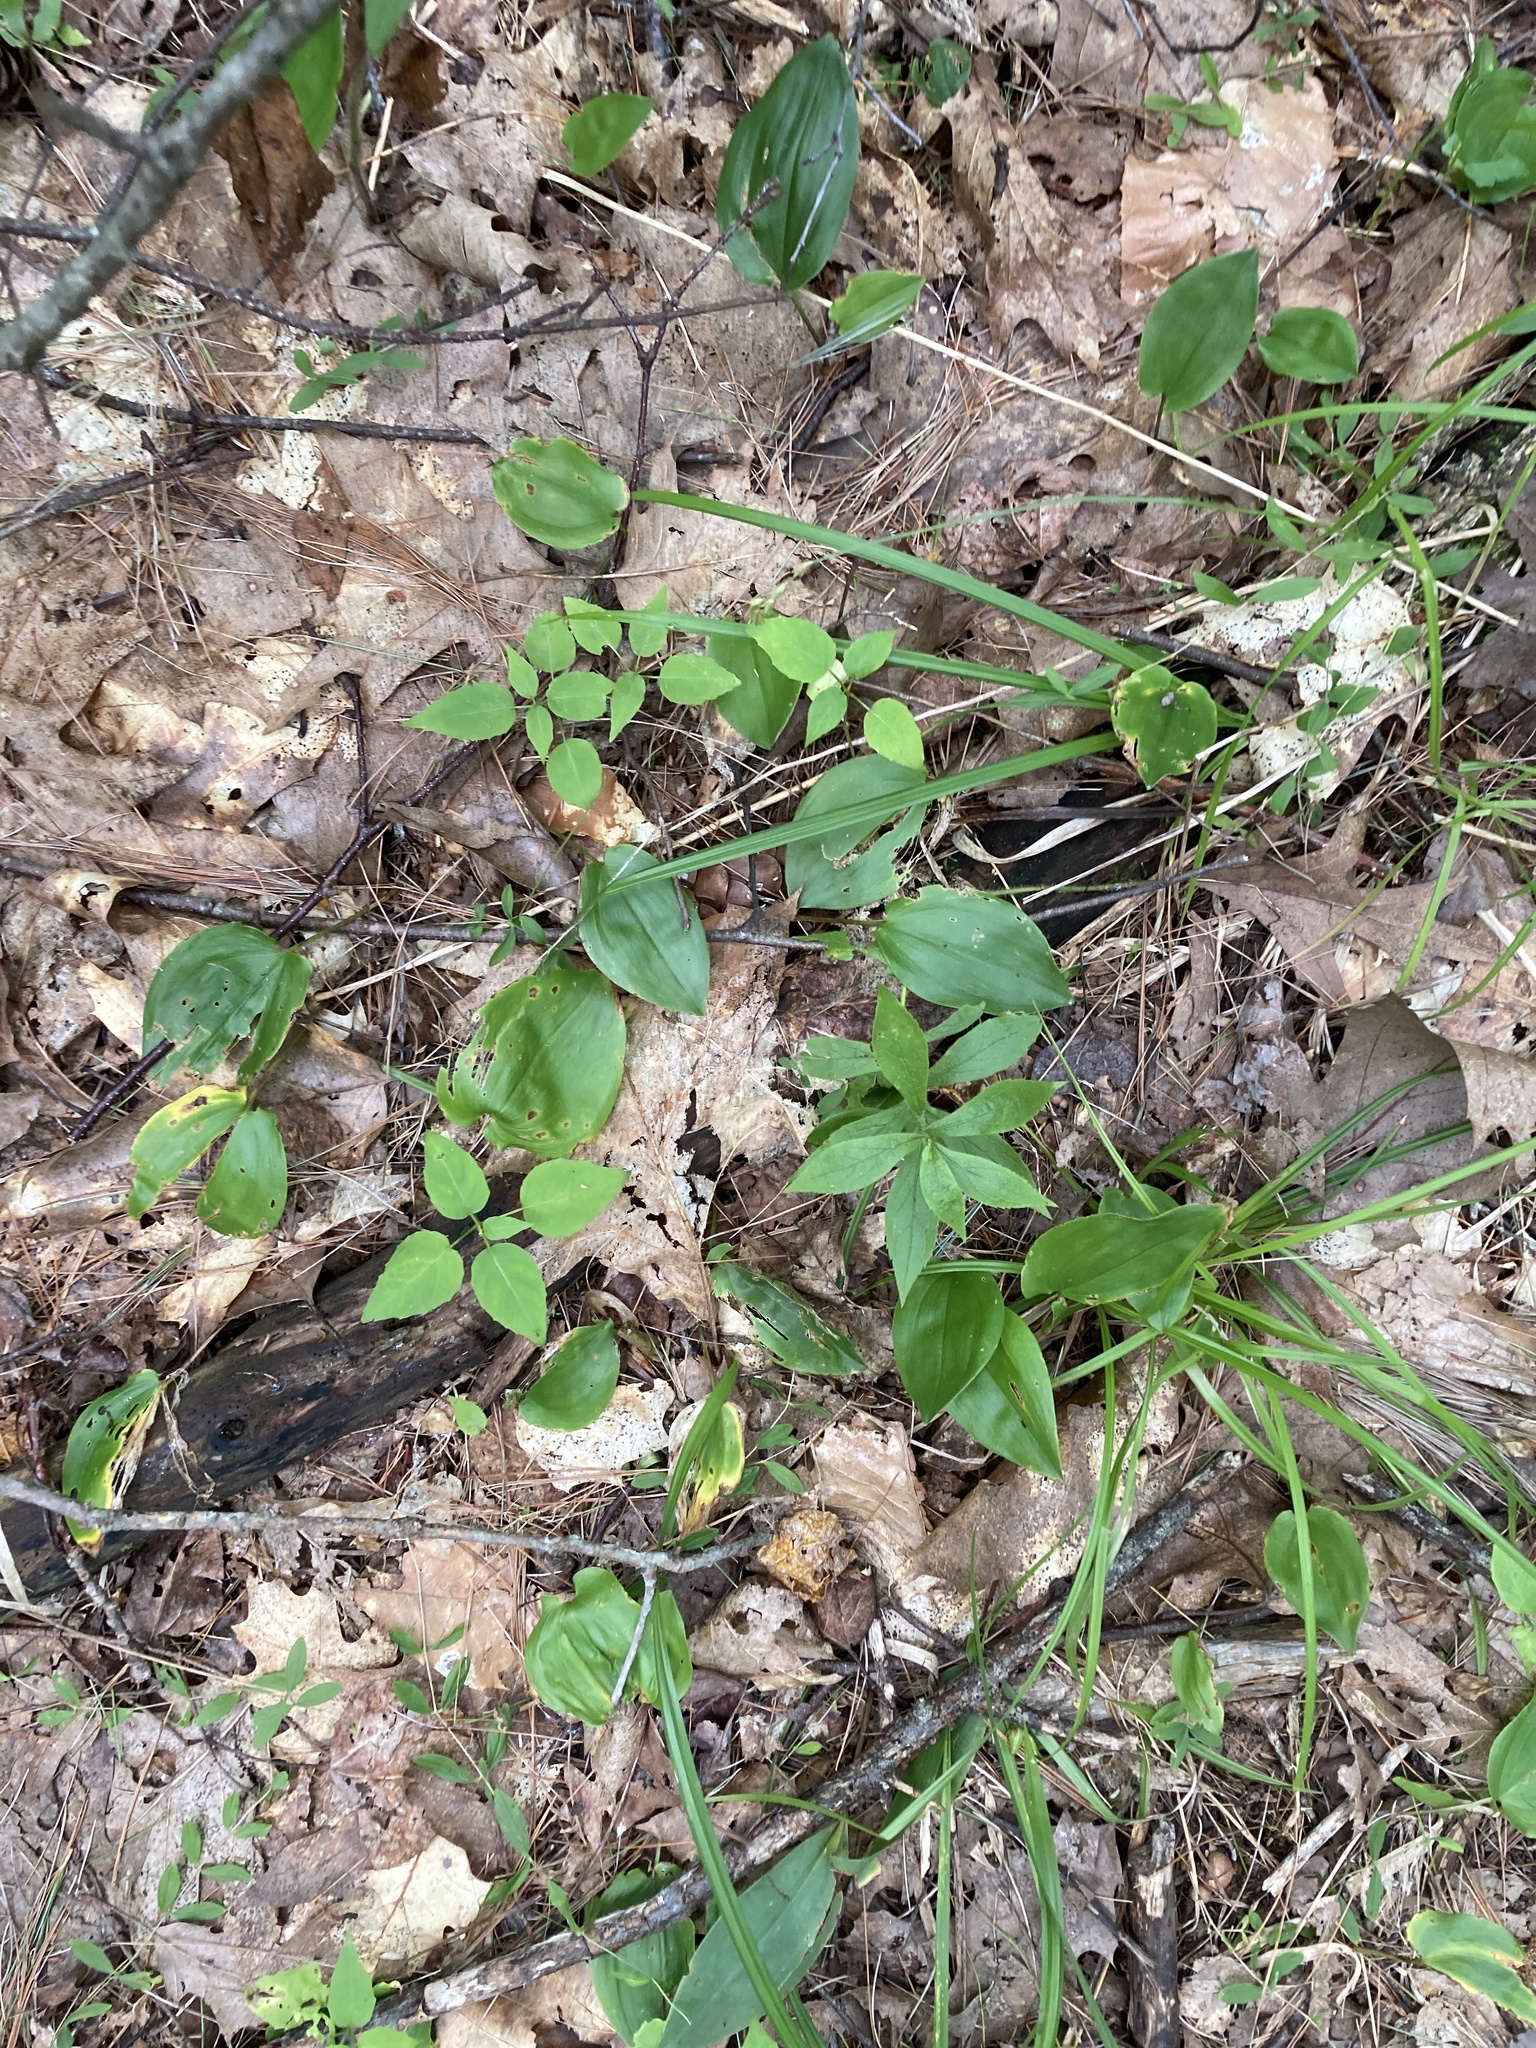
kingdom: Plantae
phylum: Tracheophyta
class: Liliopsida
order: Asparagales
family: Asparagaceae
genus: Maianthemum
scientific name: Maianthemum canadense
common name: False lily-of-the-valley
